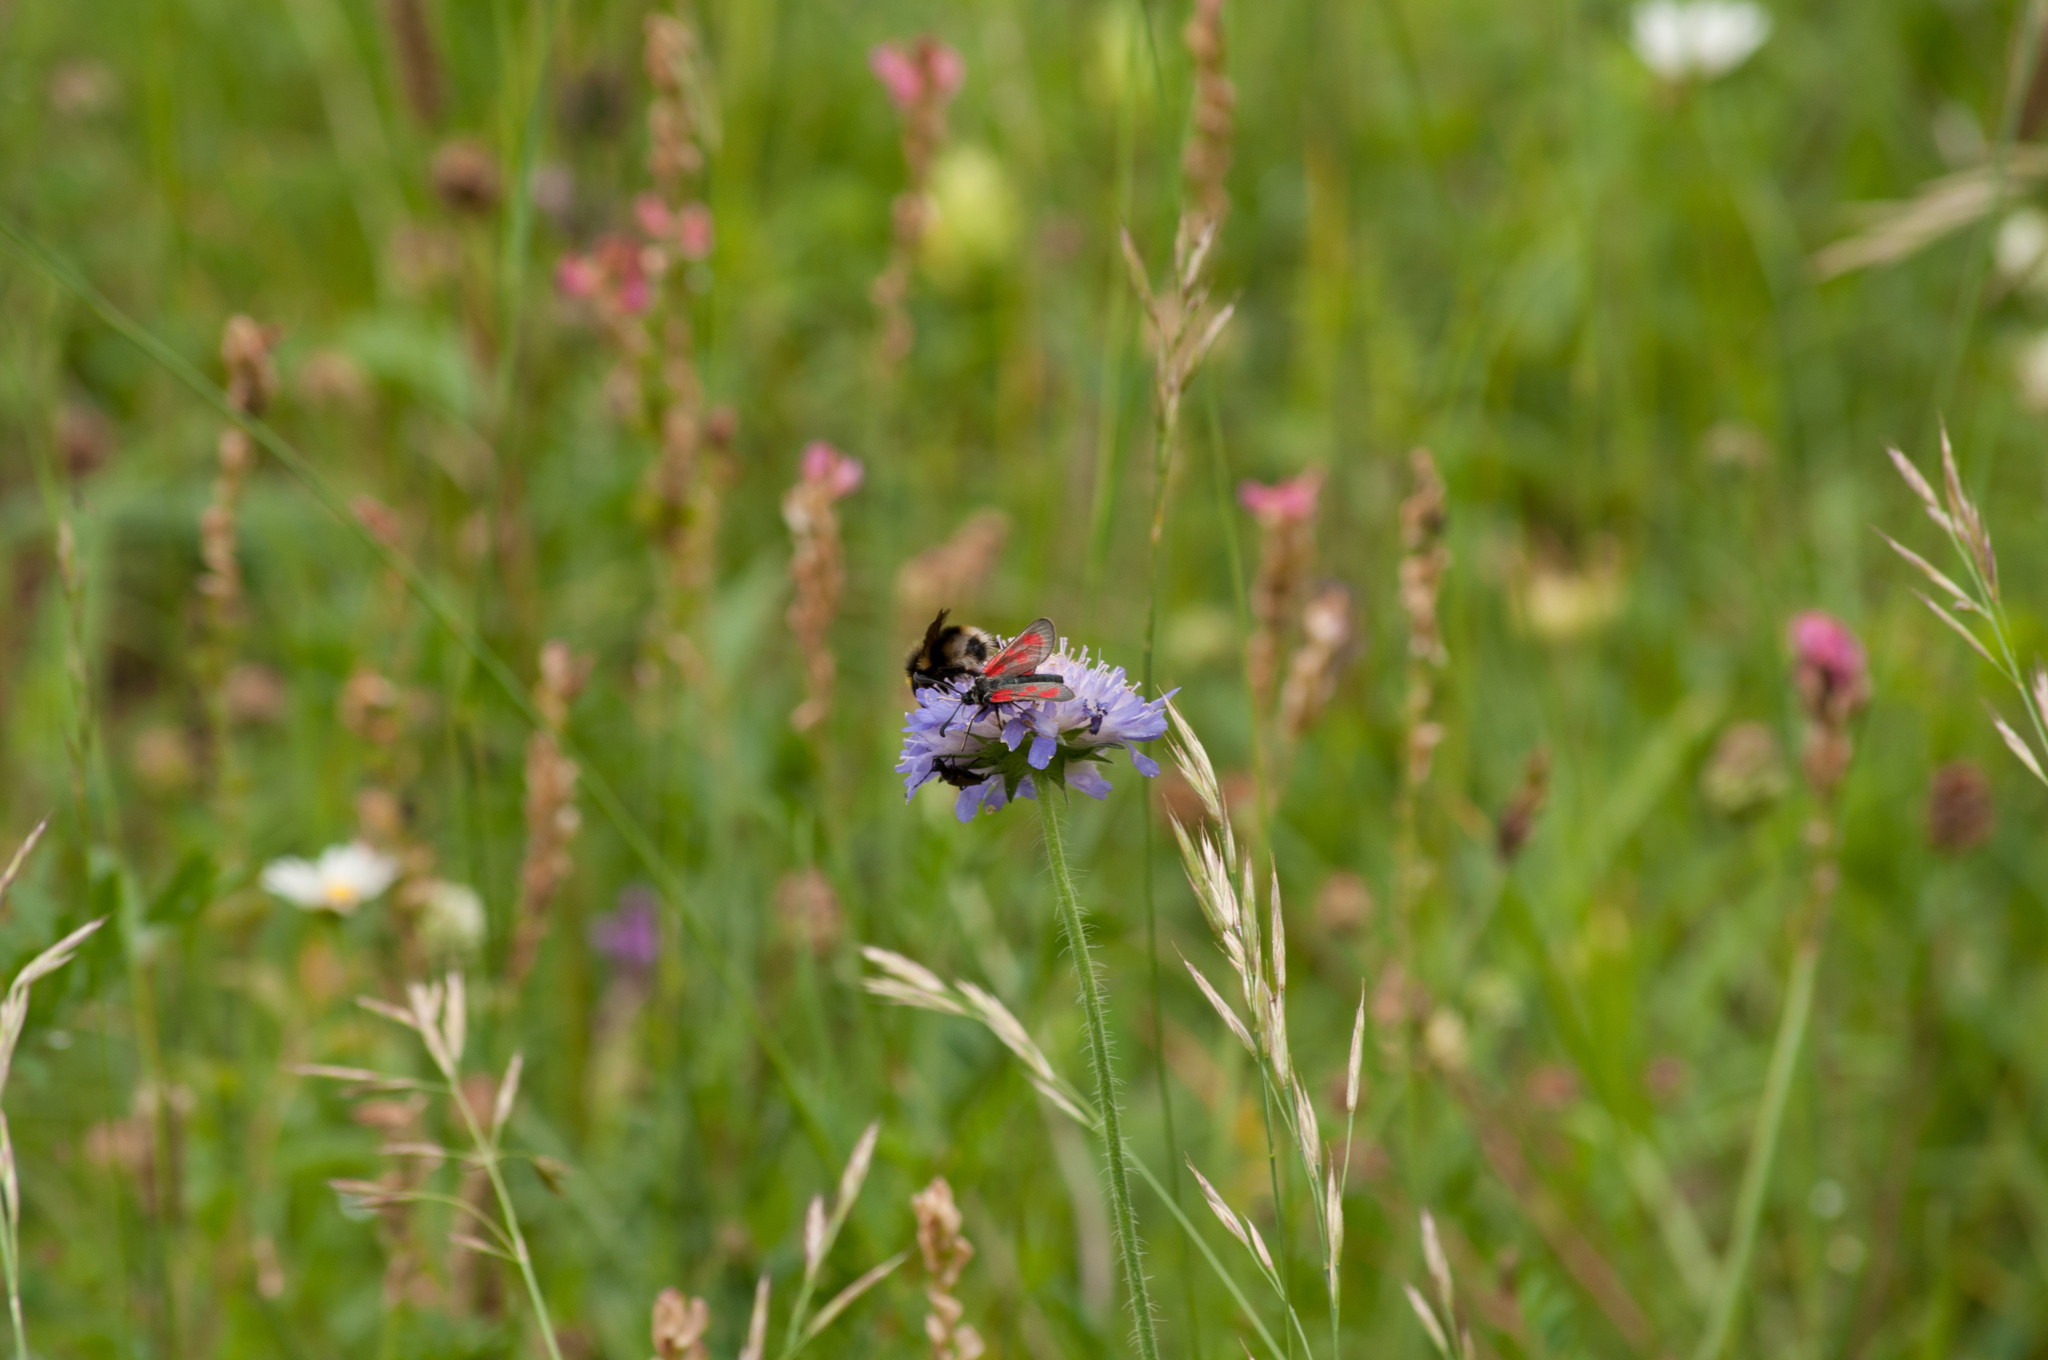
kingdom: Animalia
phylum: Arthropoda
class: Insecta
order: Lepidoptera
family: Zygaenidae
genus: Zygaena
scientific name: Zygaena loti
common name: Slender scotch burnet
